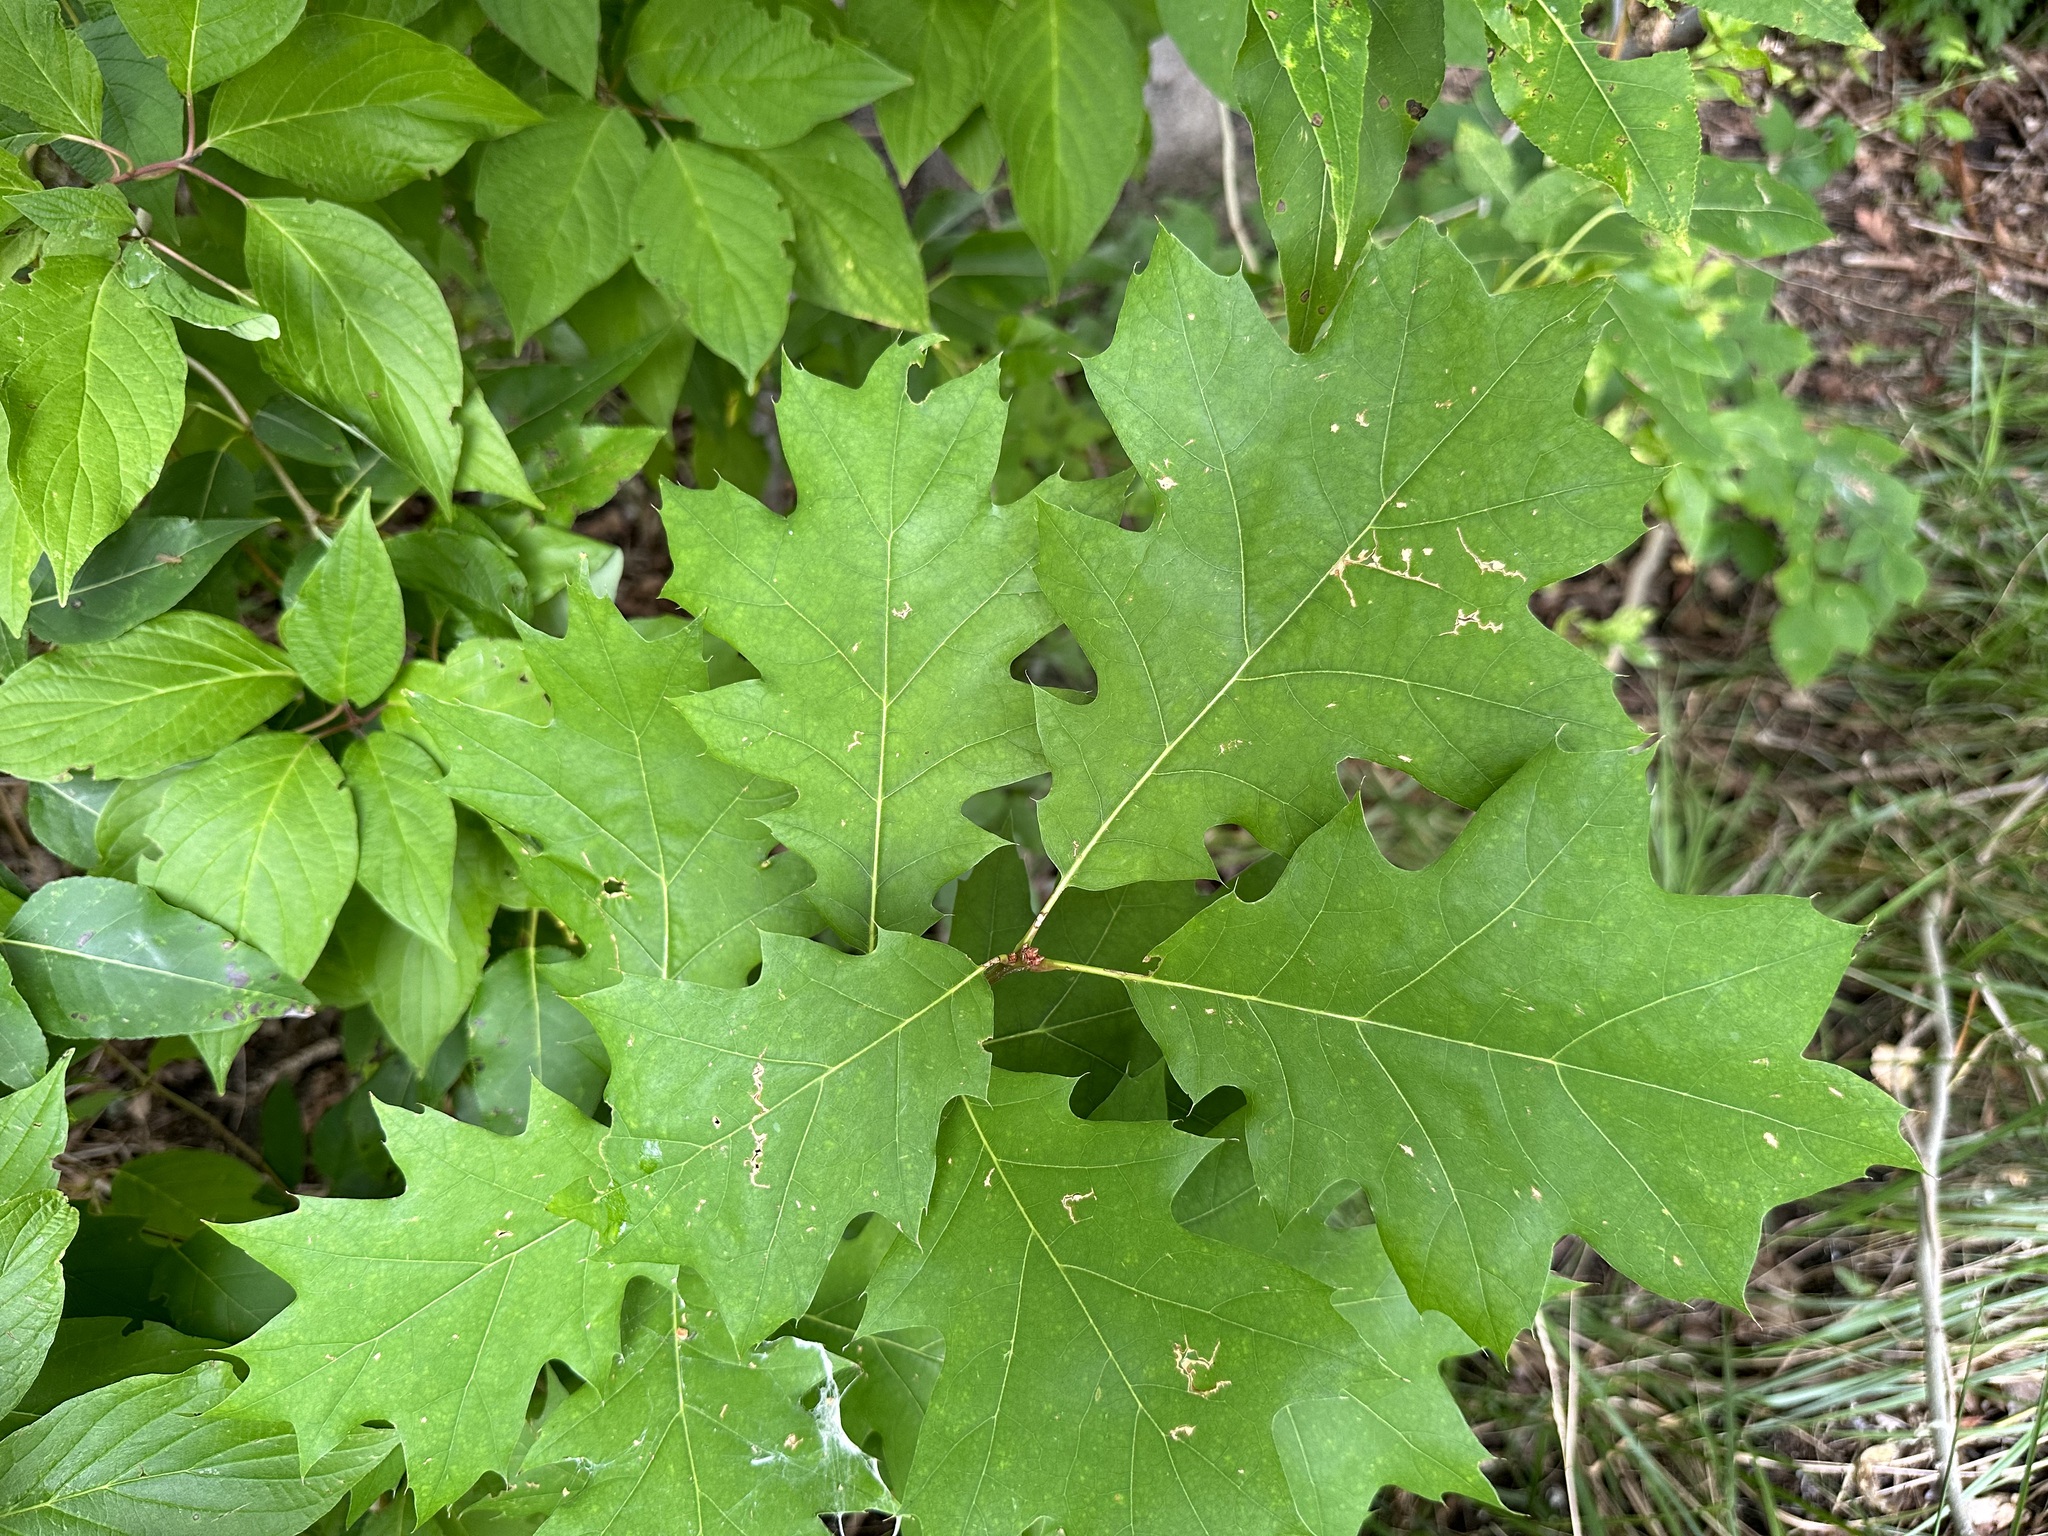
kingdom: Plantae
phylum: Tracheophyta
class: Magnoliopsida
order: Fagales
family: Fagaceae
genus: Quercus
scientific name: Quercus rubra
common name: Red oak
